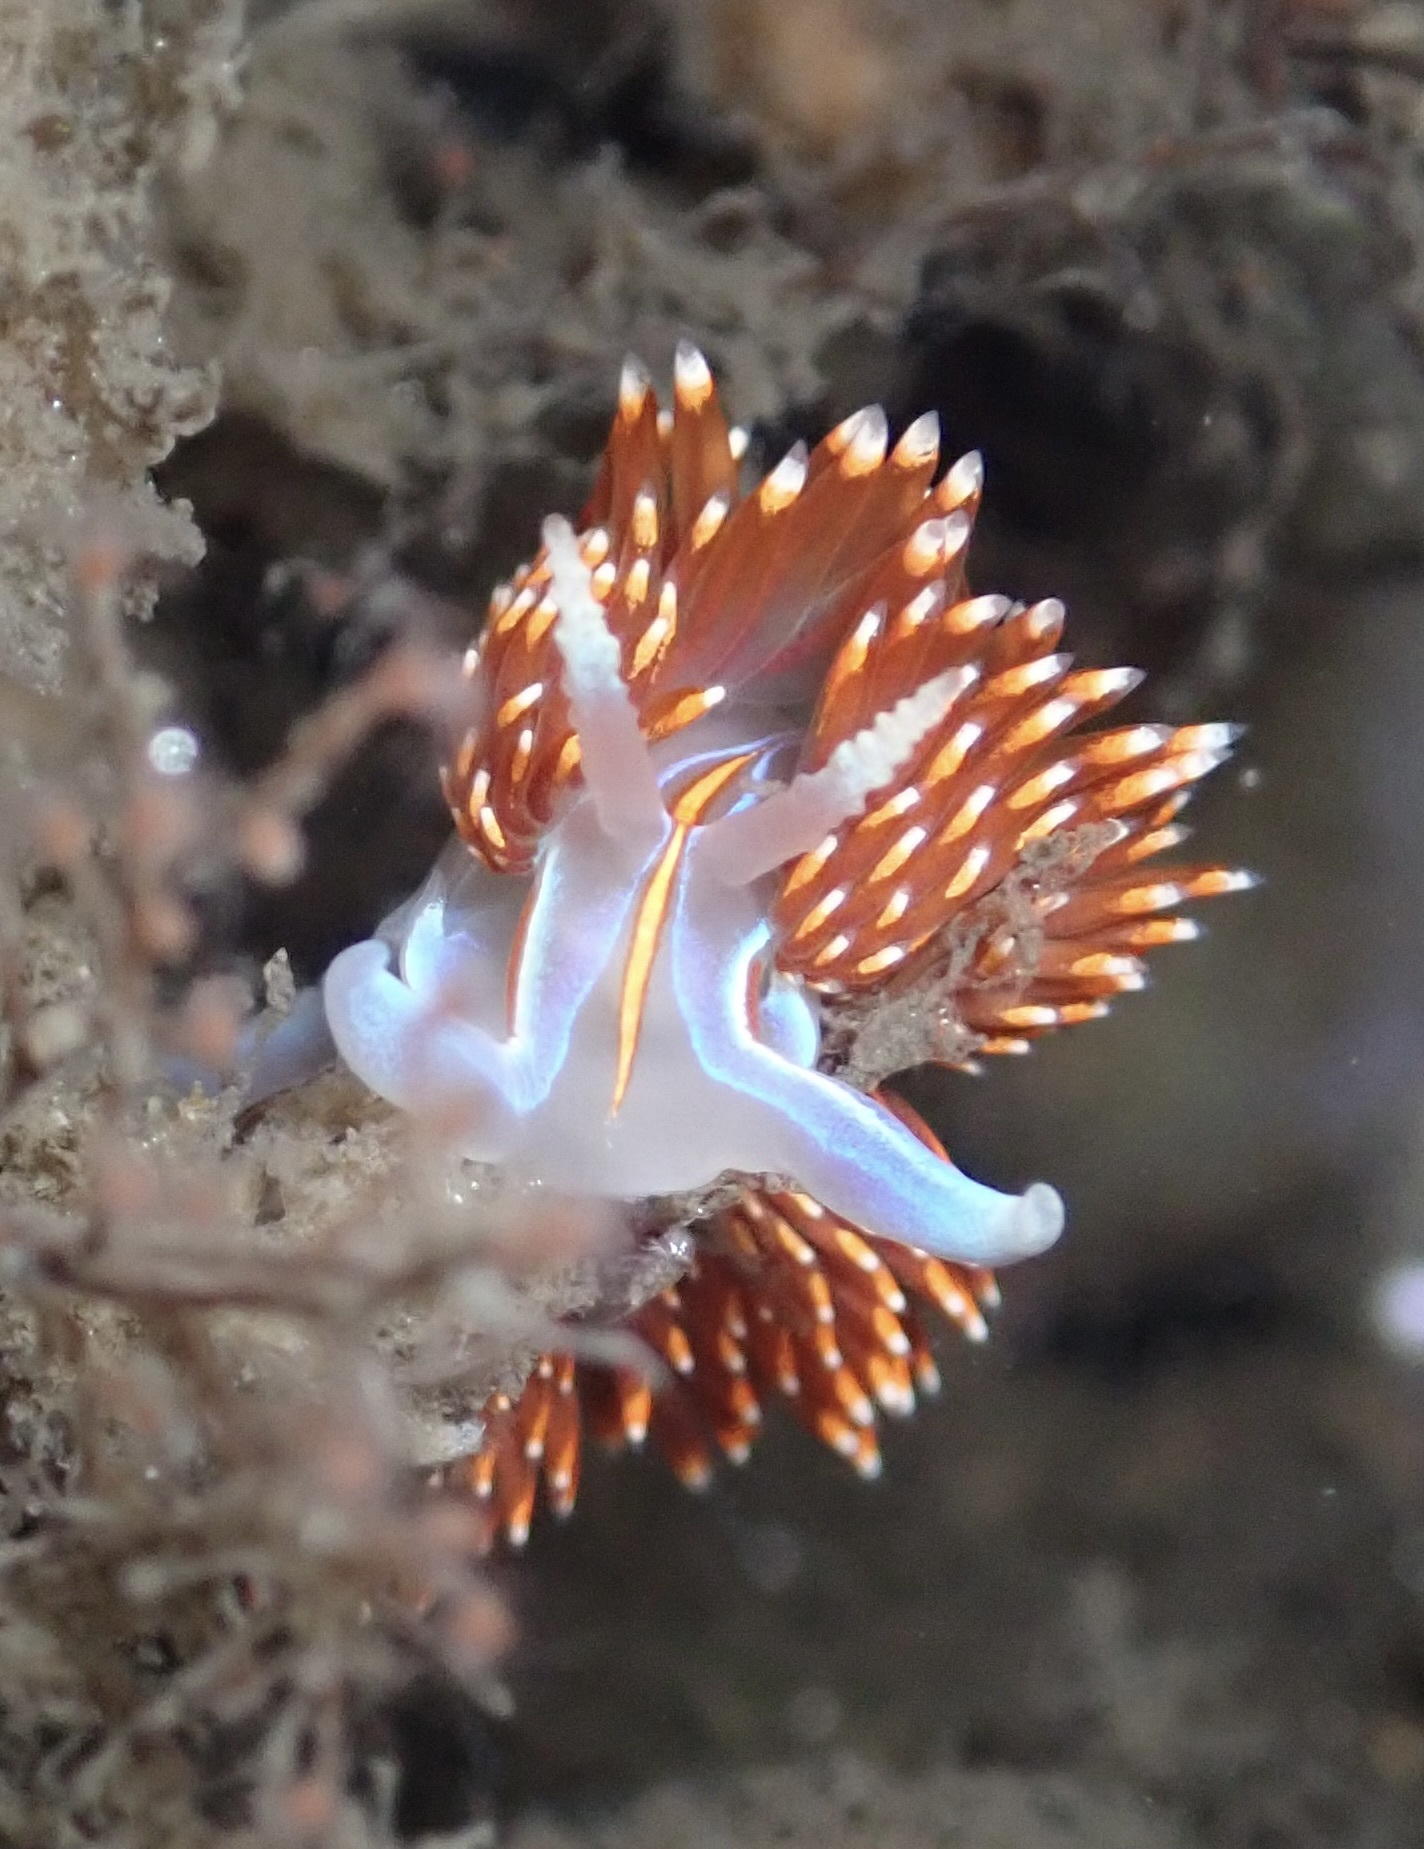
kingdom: Animalia
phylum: Mollusca
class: Gastropoda
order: Nudibranchia
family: Myrrhinidae
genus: Hermissenda
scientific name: Hermissenda opalescens
